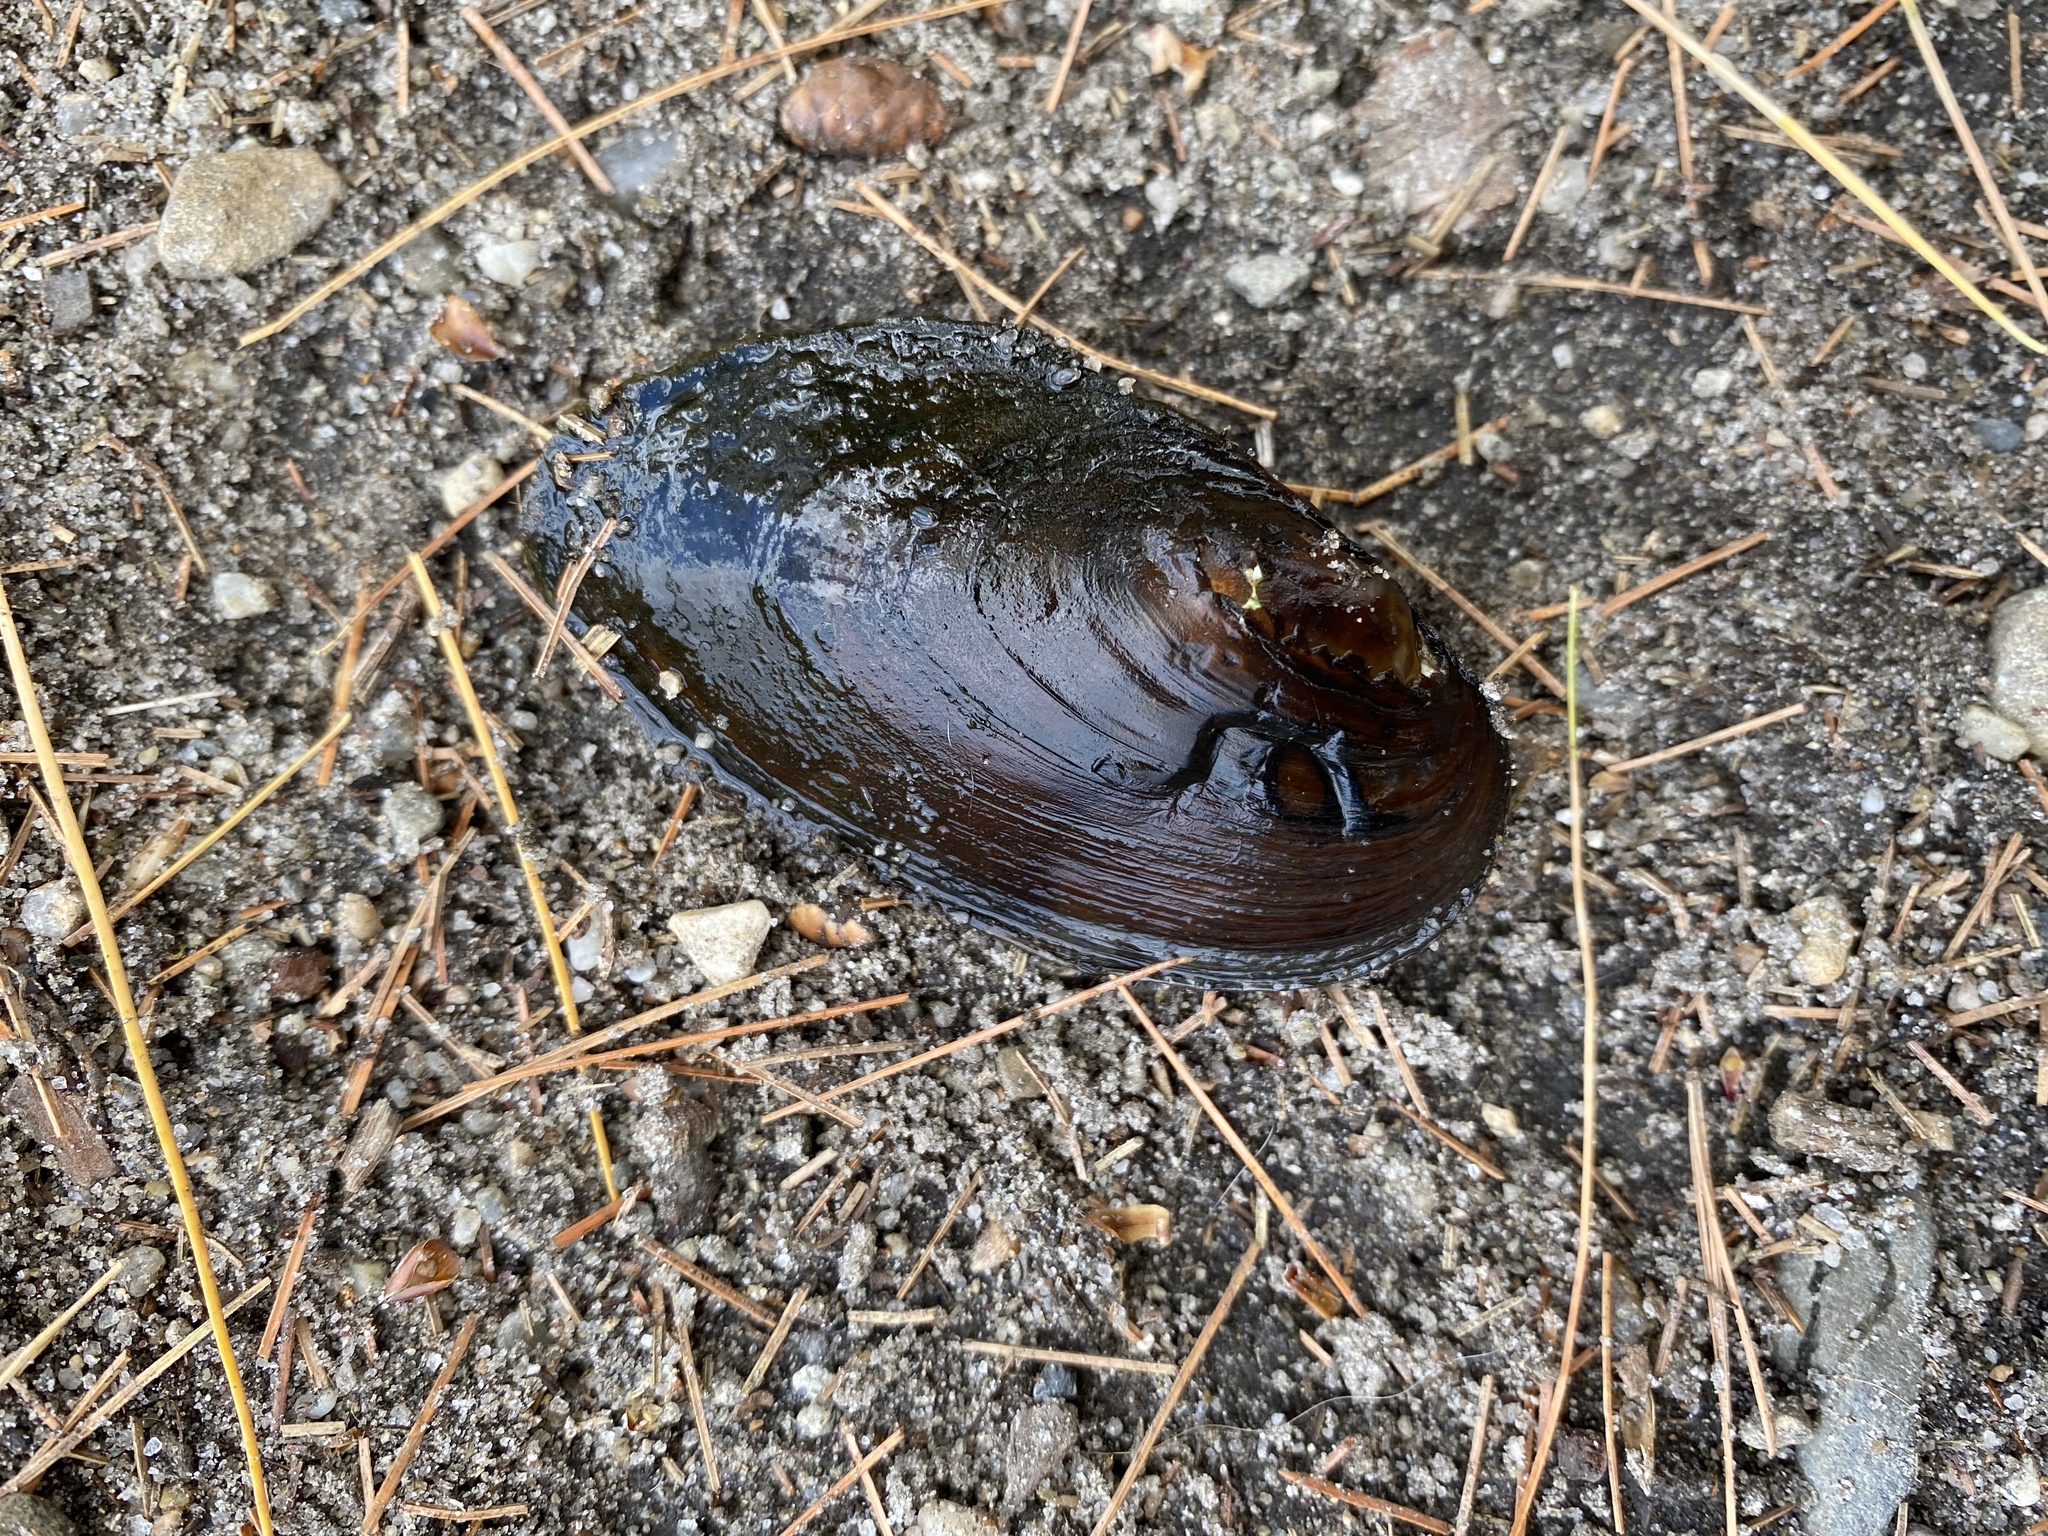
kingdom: Animalia
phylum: Mollusca
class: Bivalvia
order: Unionida
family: Unionidae
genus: Elliptio
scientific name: Elliptio complanata
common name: Eastern elliptio
